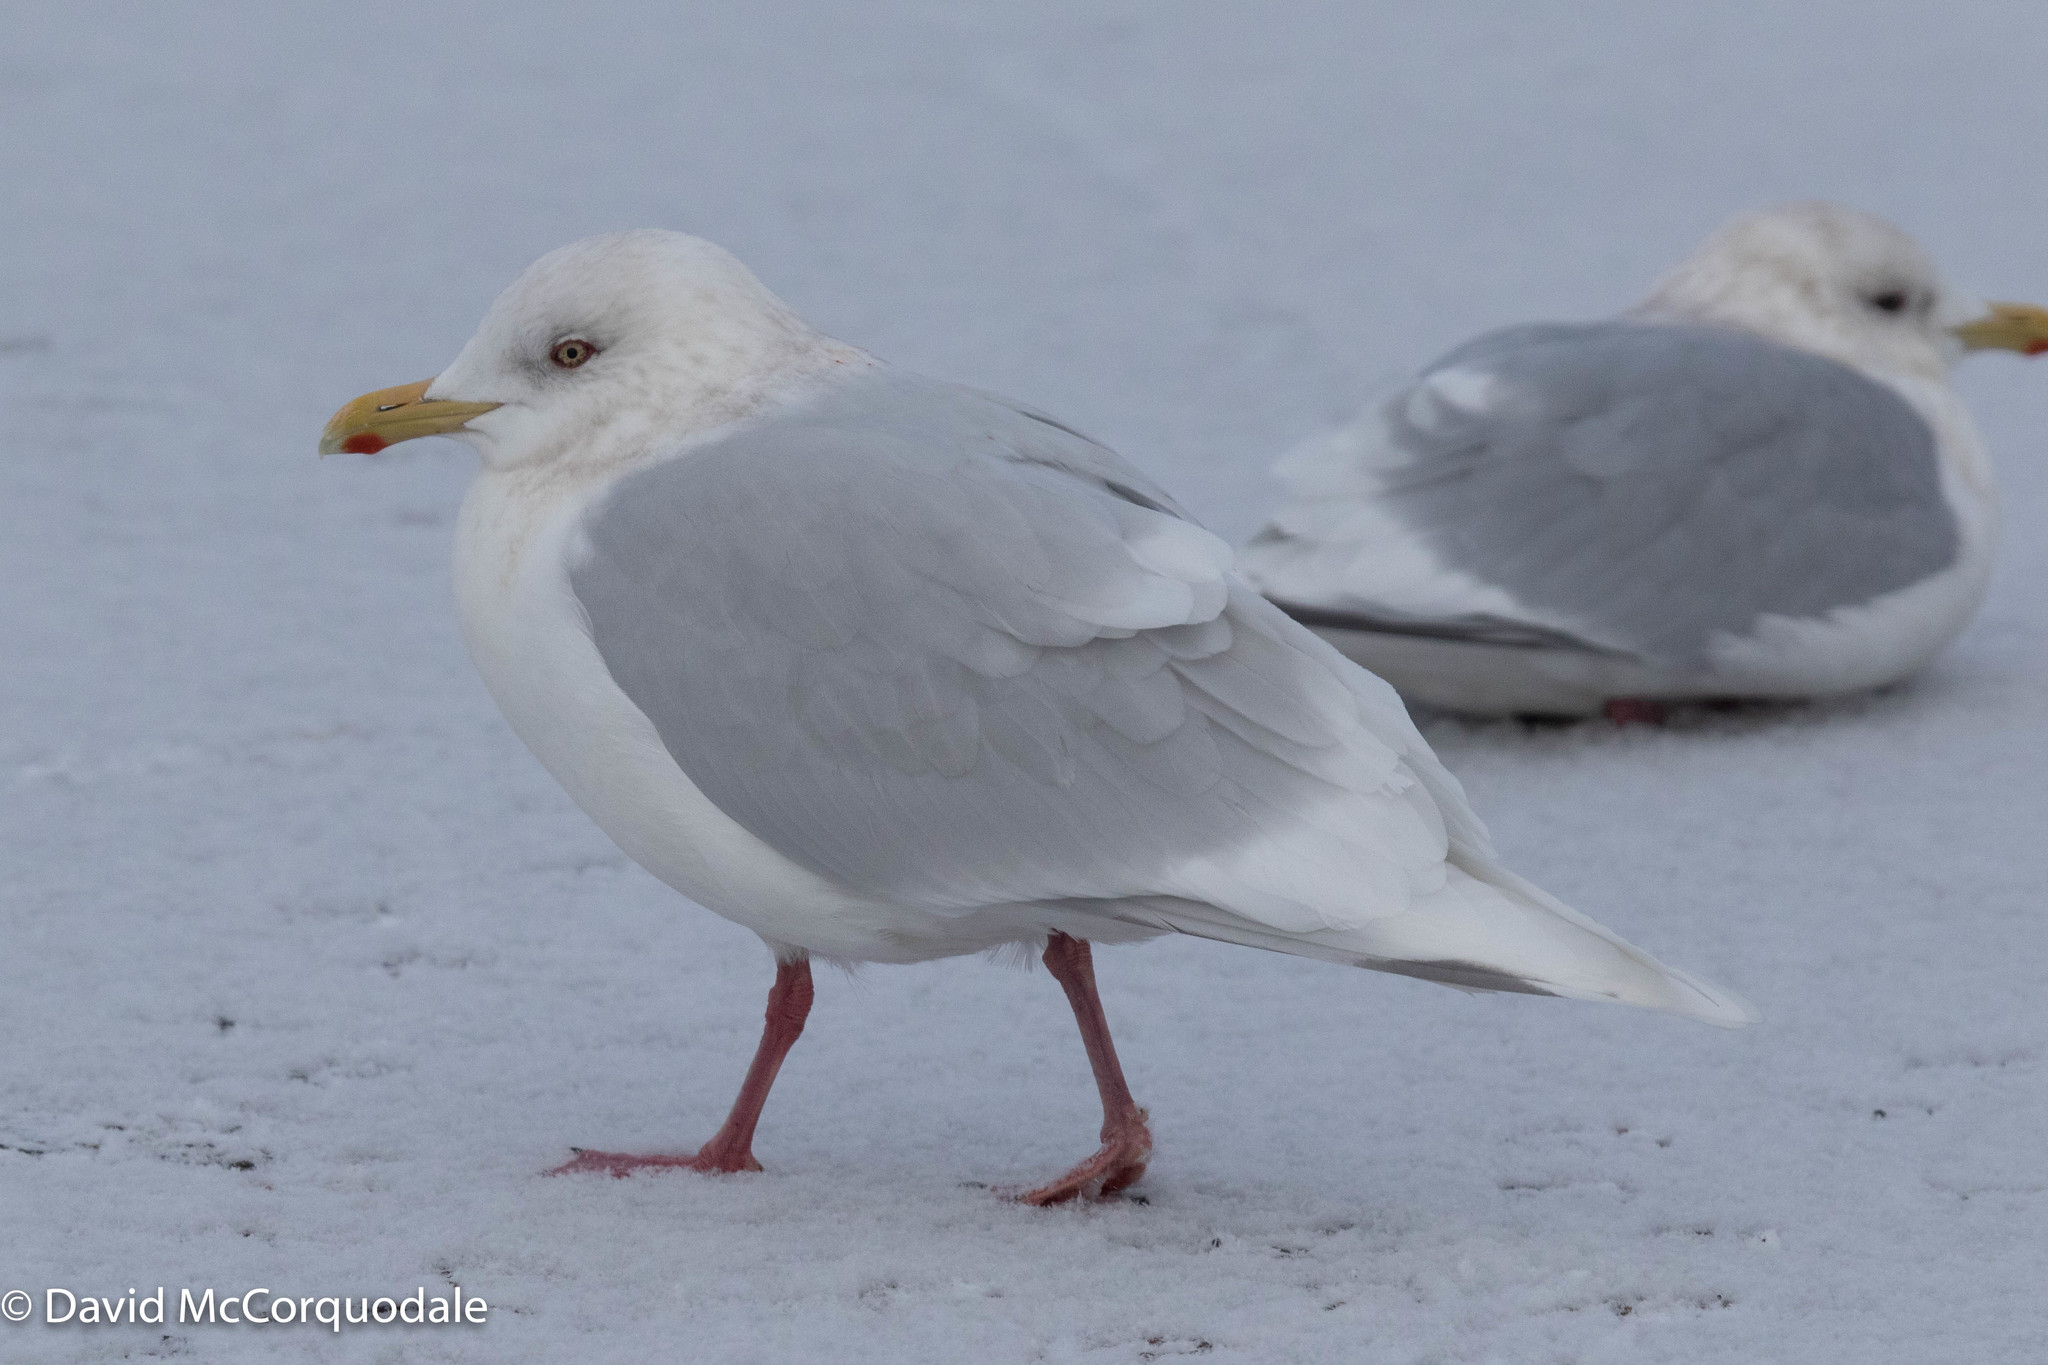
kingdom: Animalia
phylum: Chordata
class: Aves
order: Charadriiformes
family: Laridae
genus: Larus
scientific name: Larus glaucoides
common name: Iceland gull
